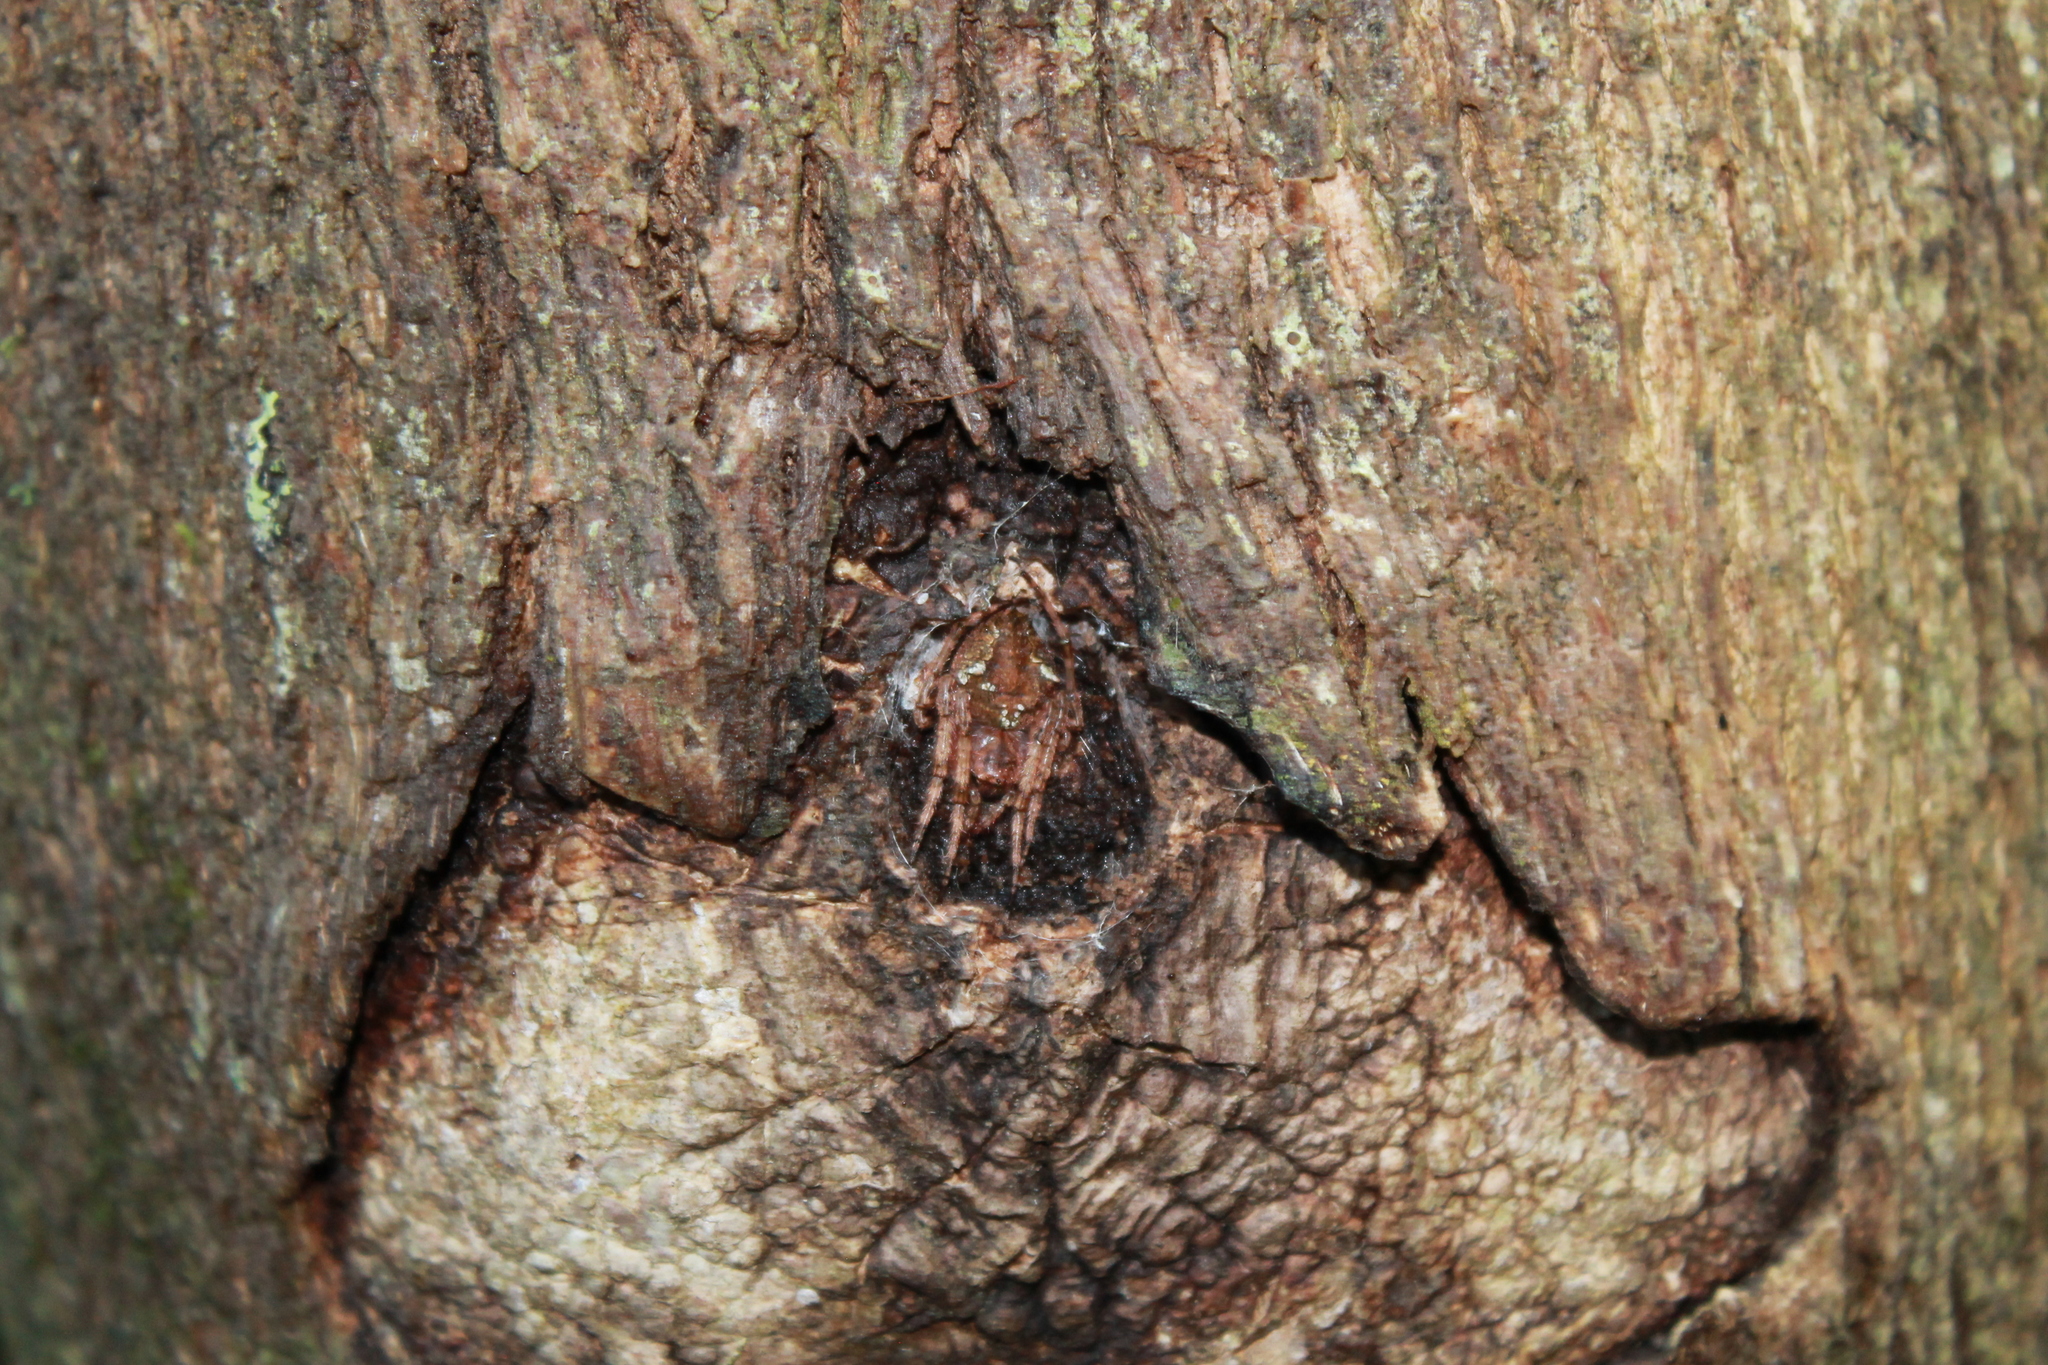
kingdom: Animalia
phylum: Arthropoda
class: Arachnida
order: Araneae
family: Araneidae
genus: Eriophora
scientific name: Eriophora pustulosa
